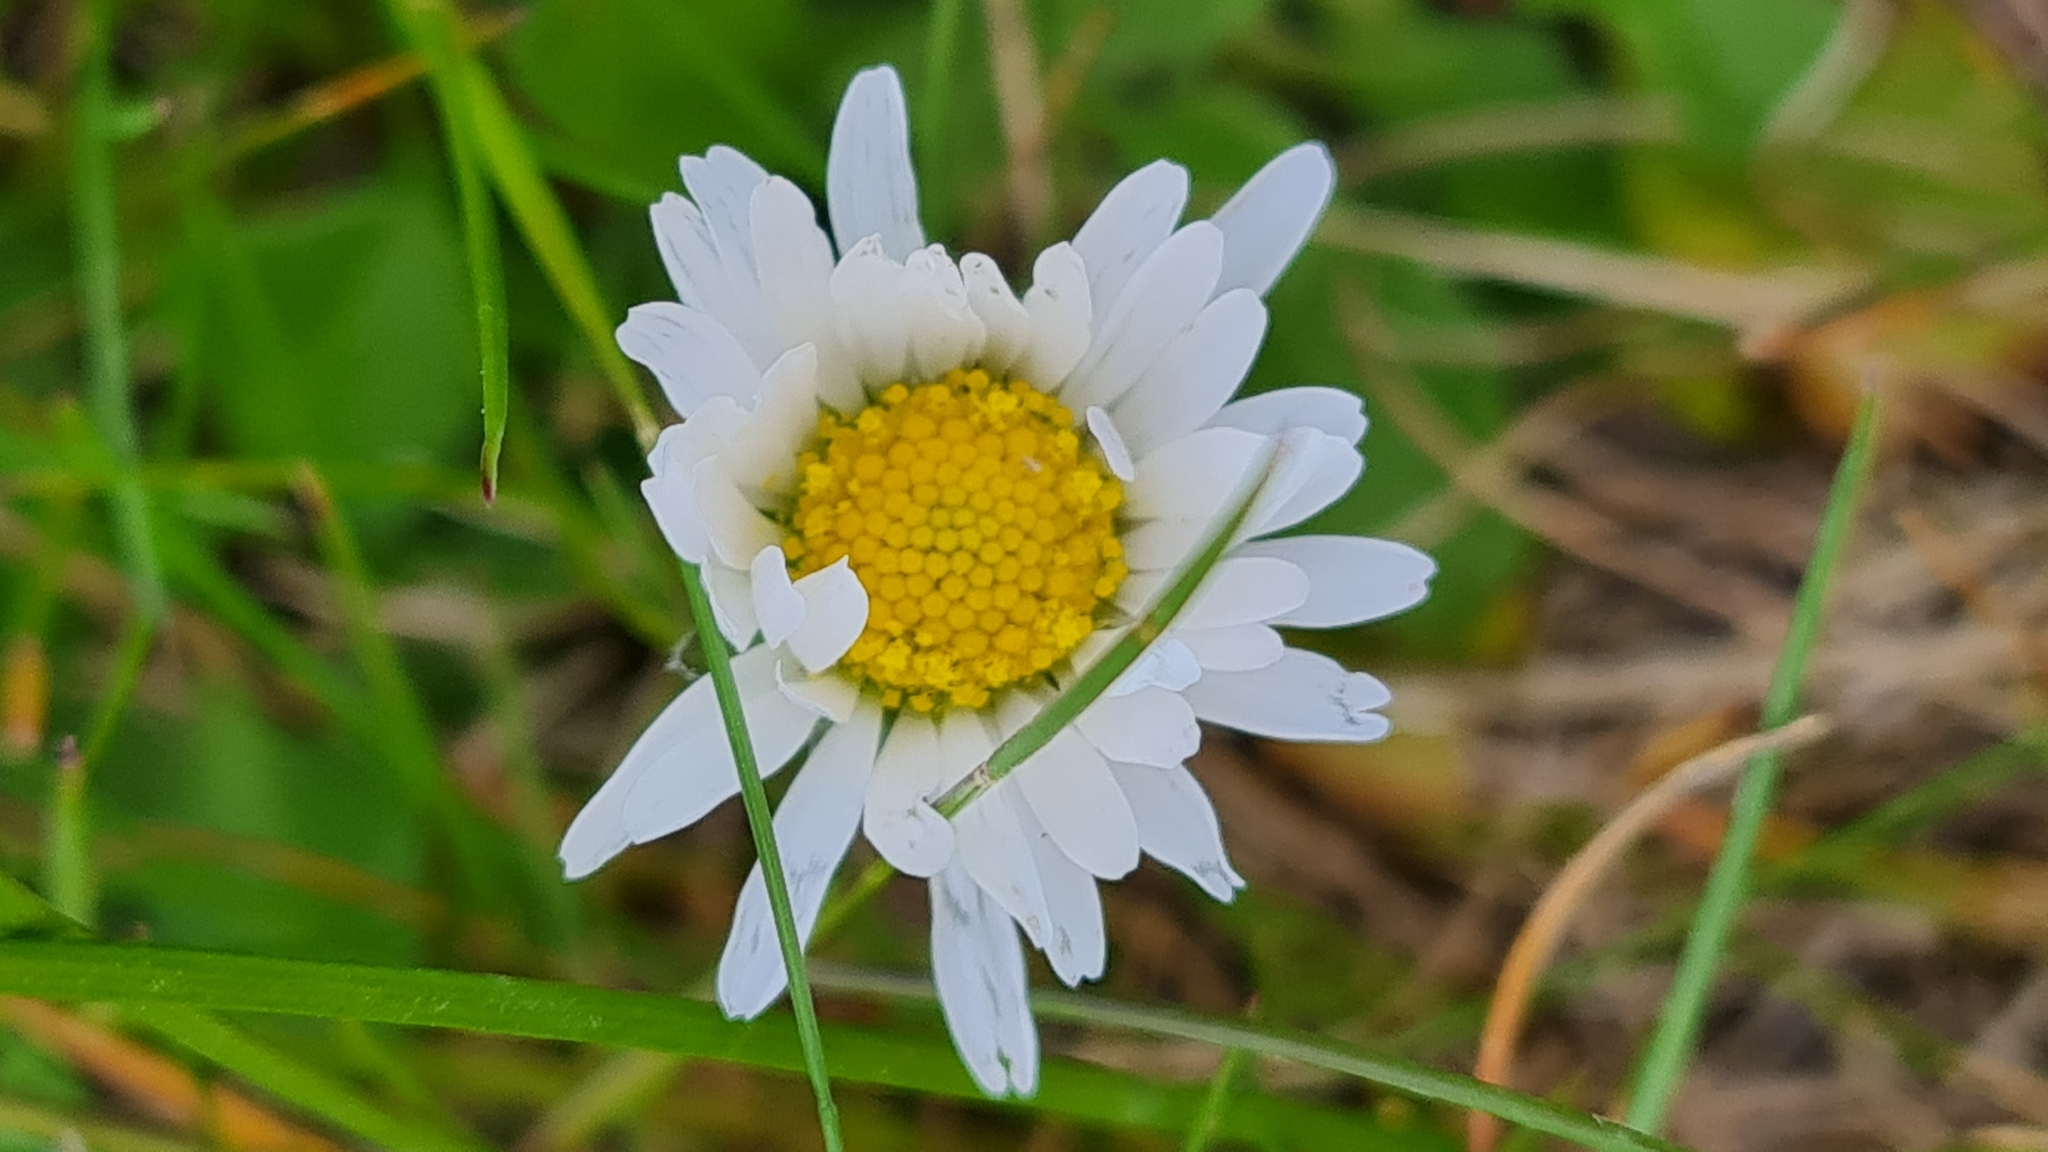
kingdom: Plantae
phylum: Tracheophyta
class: Magnoliopsida
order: Asterales
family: Asteraceae
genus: Bellis
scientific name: Bellis perennis
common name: Lawndaisy
